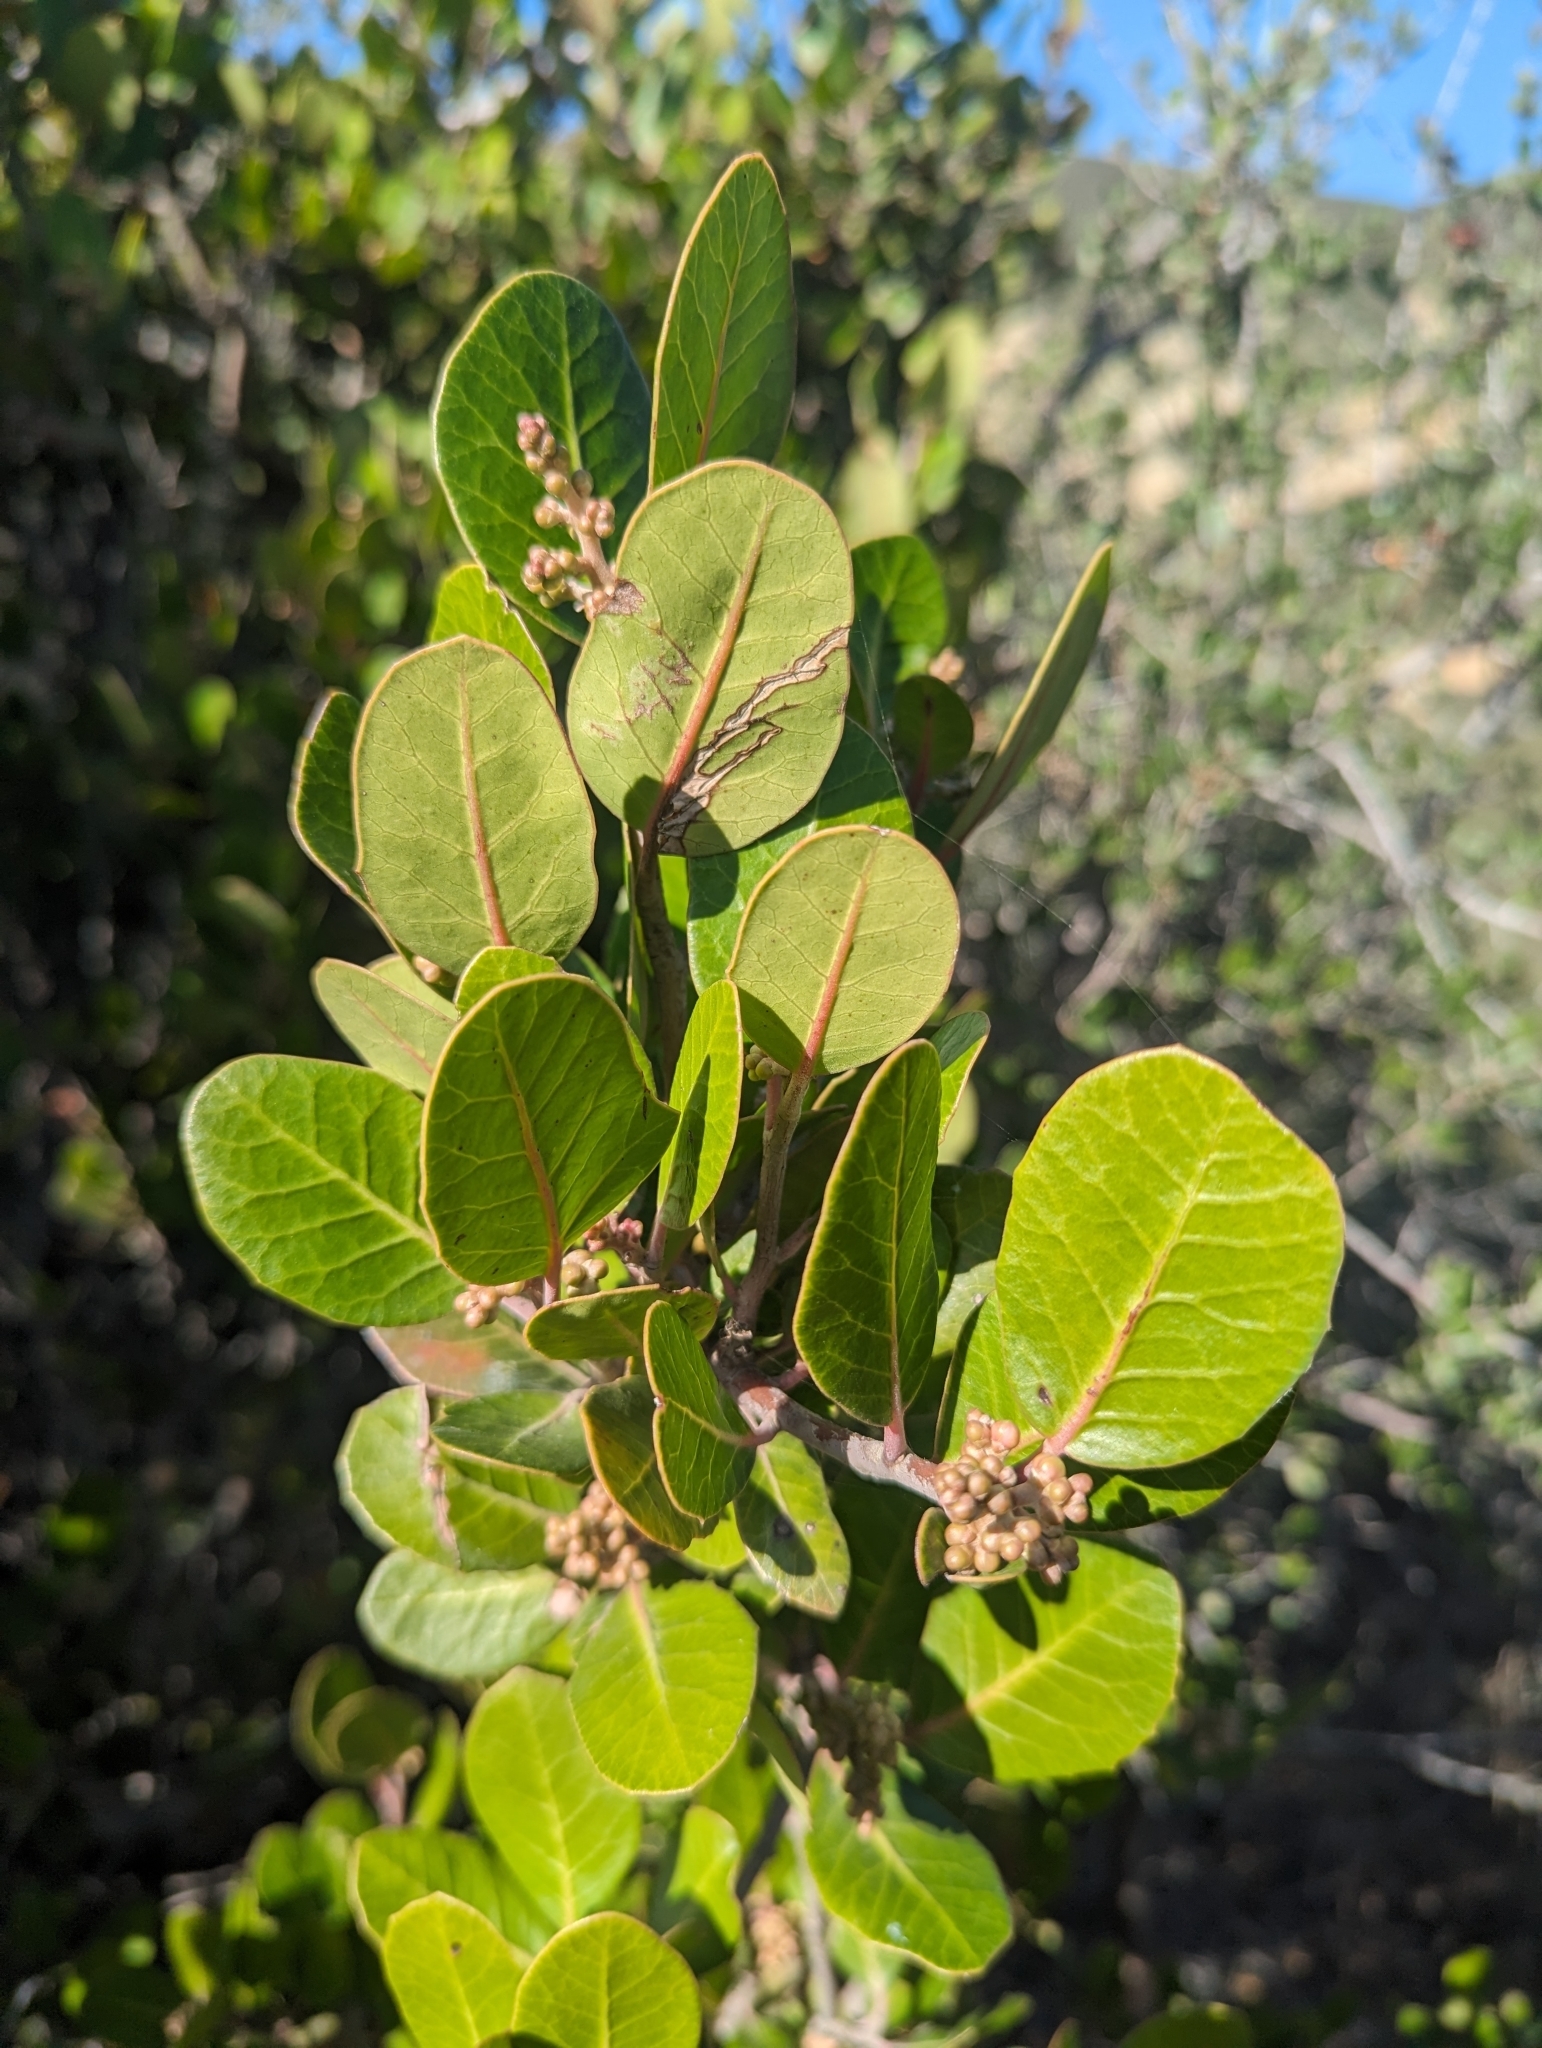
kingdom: Plantae
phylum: Tracheophyta
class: Magnoliopsida
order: Sapindales
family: Anacardiaceae
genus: Rhus
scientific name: Rhus integrifolia
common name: Lemonade sumac
